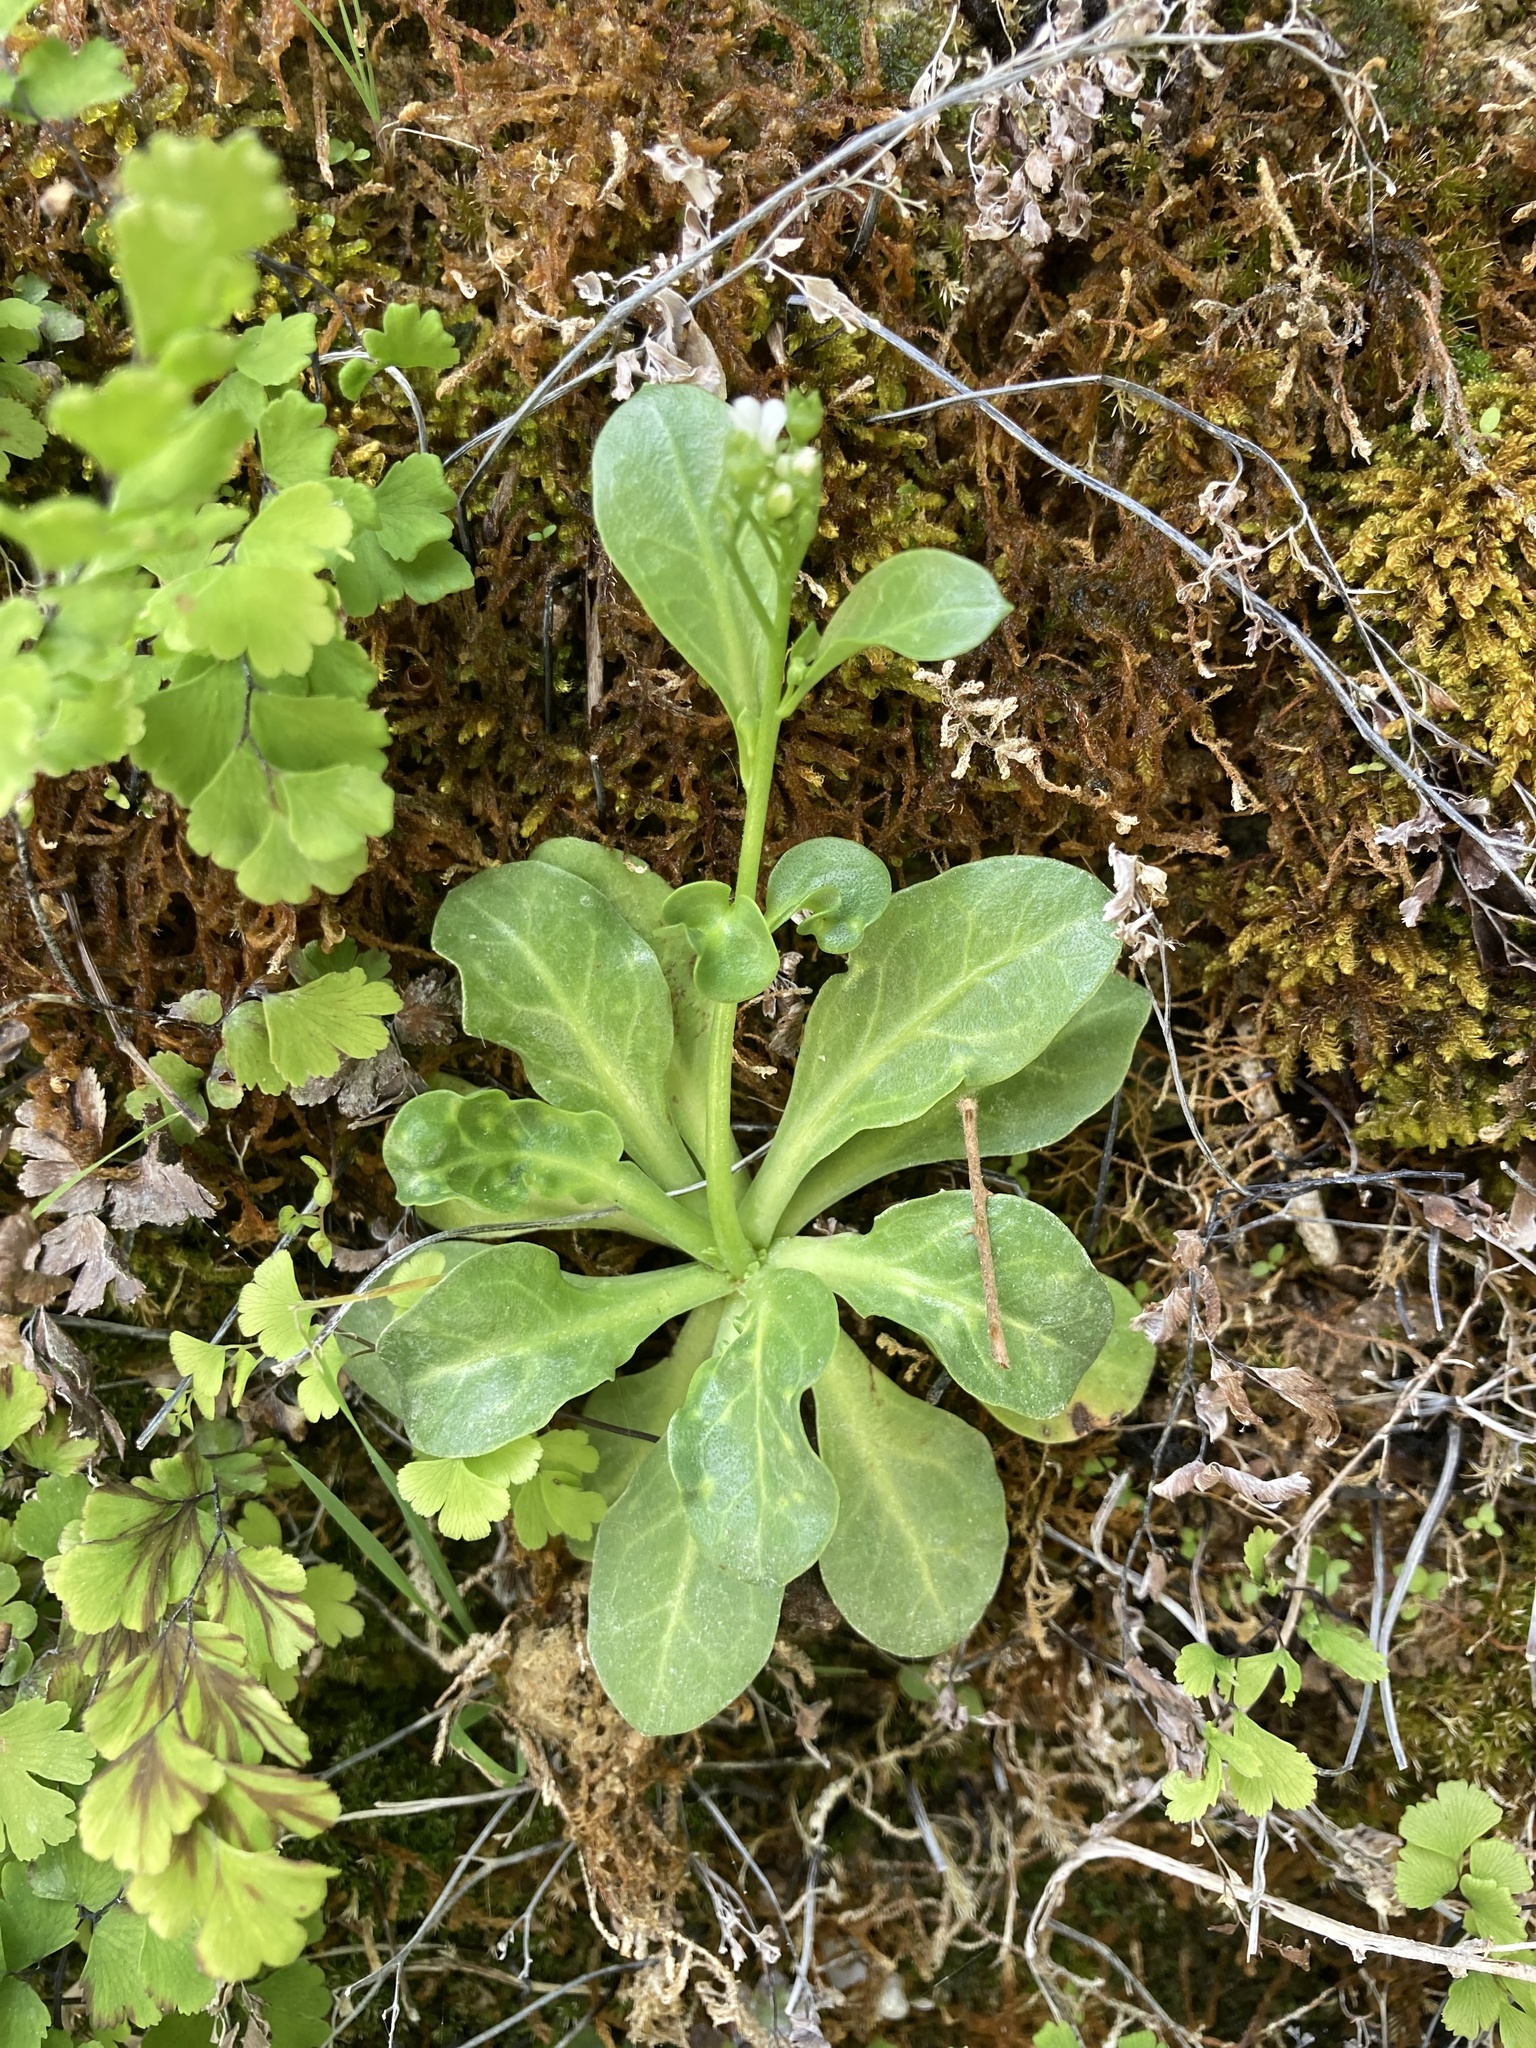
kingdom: Plantae
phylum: Tracheophyta
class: Magnoliopsida
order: Ericales
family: Primulaceae
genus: Samolus
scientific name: Samolus valerandi
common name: Brookweed
